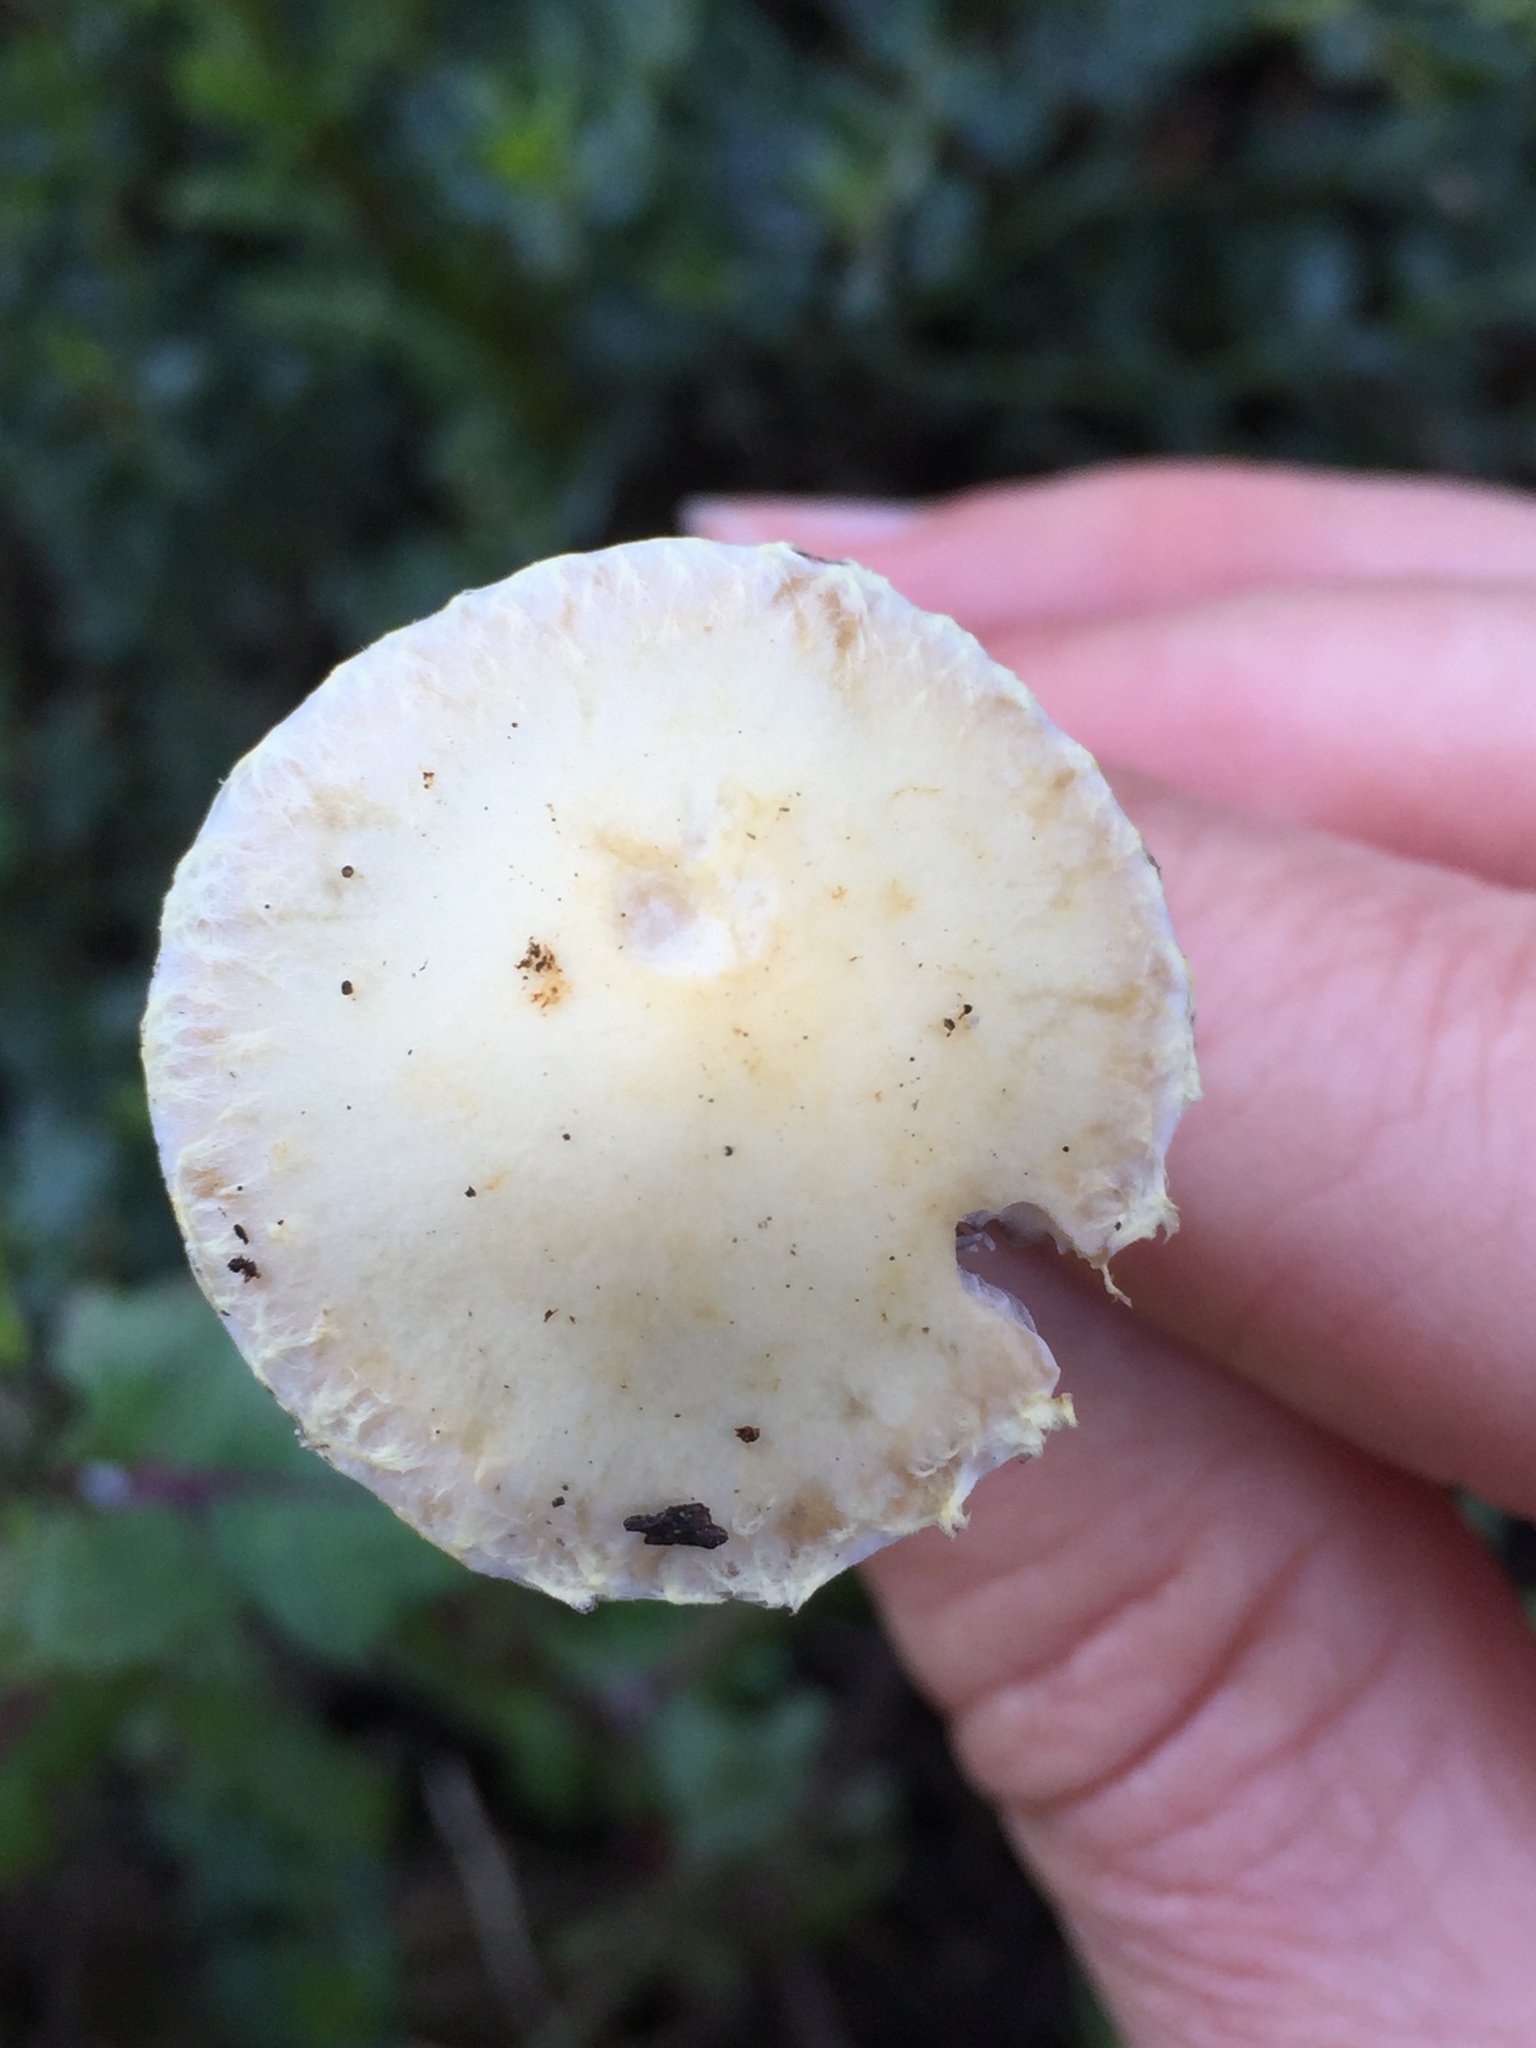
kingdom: Fungi
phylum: Basidiomycota
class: Agaricomycetes
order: Agaricales
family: Strophariaceae
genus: Leratiomyces
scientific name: Leratiomyces percevalii
